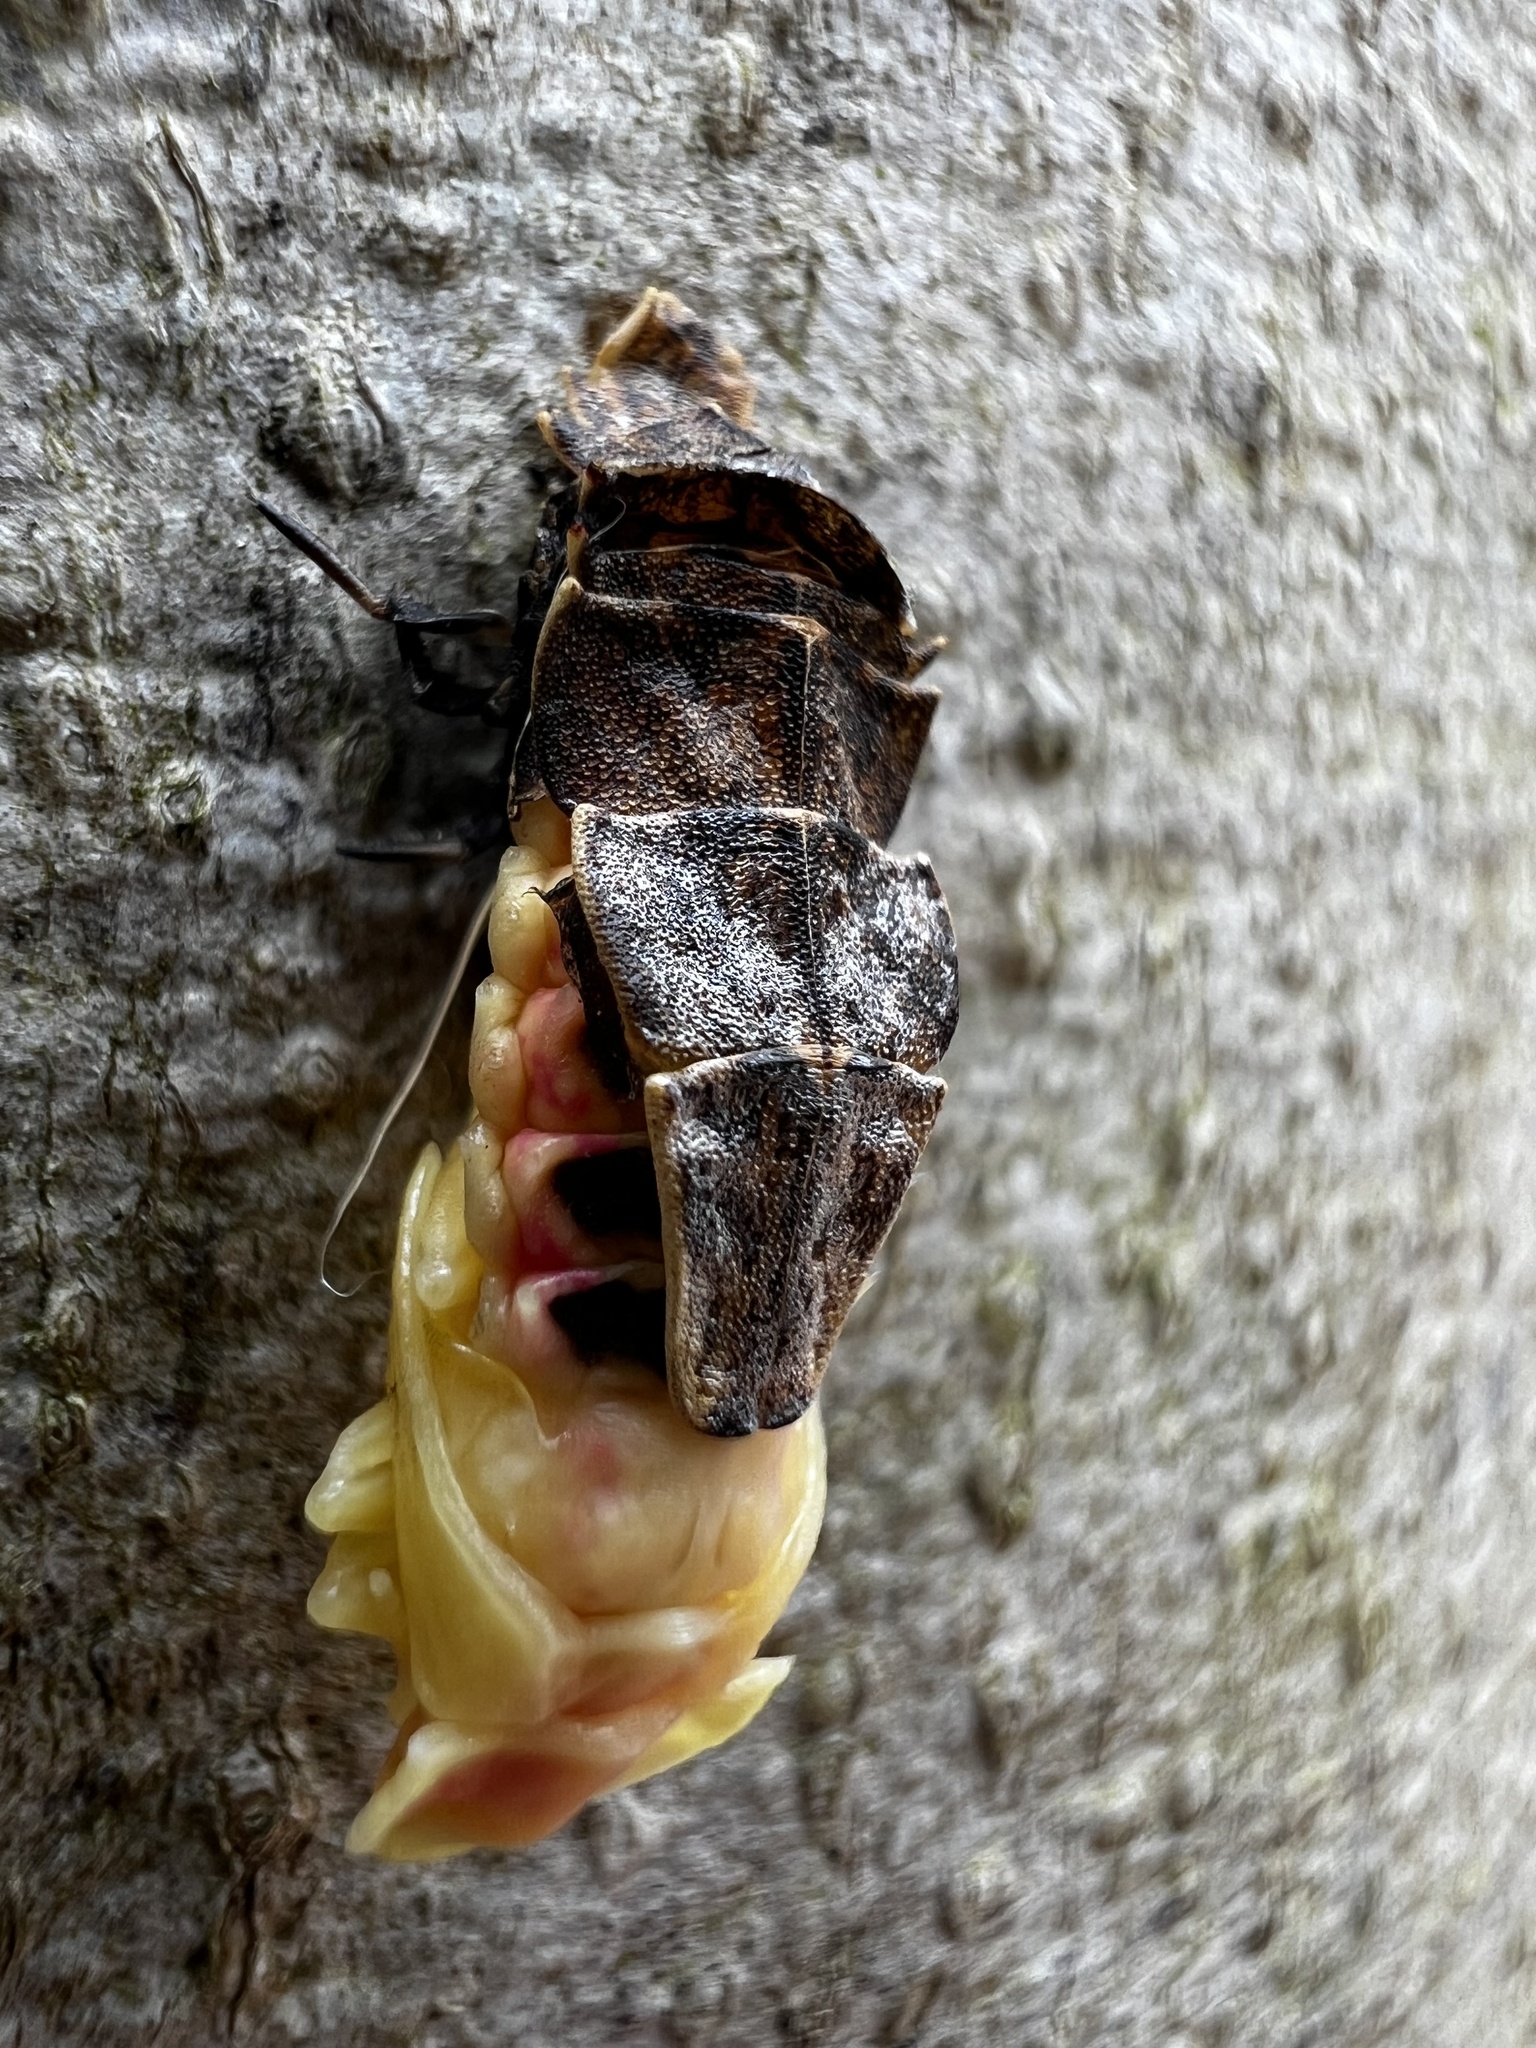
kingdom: Animalia
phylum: Arthropoda
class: Insecta
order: Coleoptera
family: Lampyridae
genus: Pyractomena
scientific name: Pyractomena borealis
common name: Northern firefly
